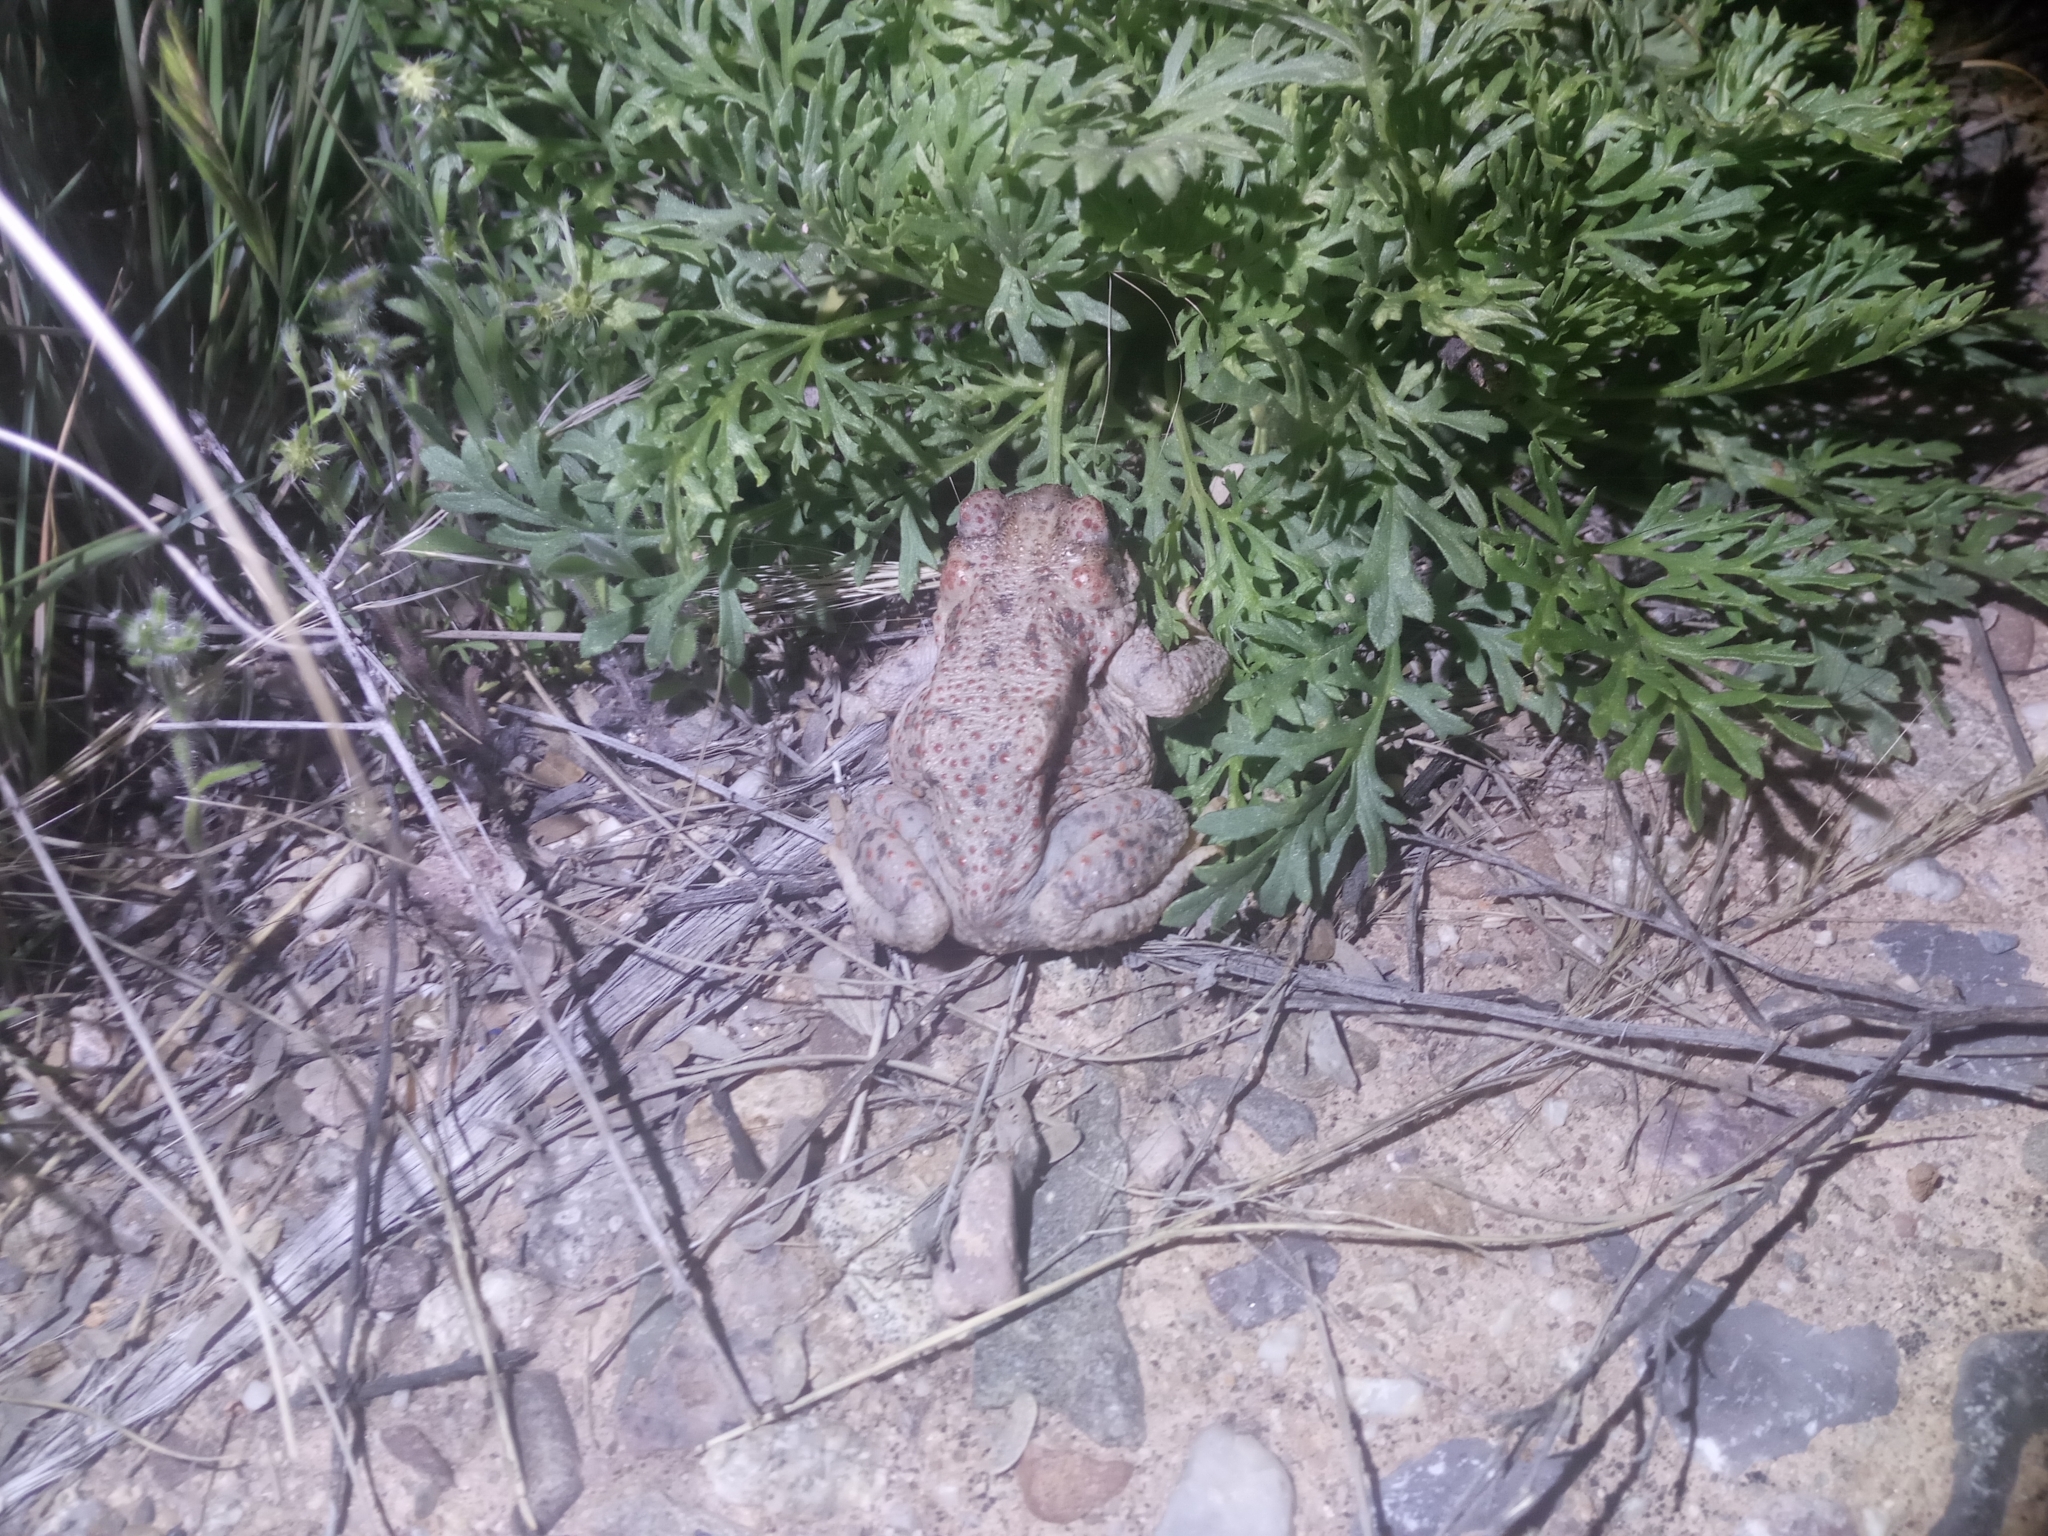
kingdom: Animalia
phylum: Chordata
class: Amphibia
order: Anura
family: Bufonidae
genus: Anaxyrus
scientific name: Anaxyrus punctatus
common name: Red-spotted toad
